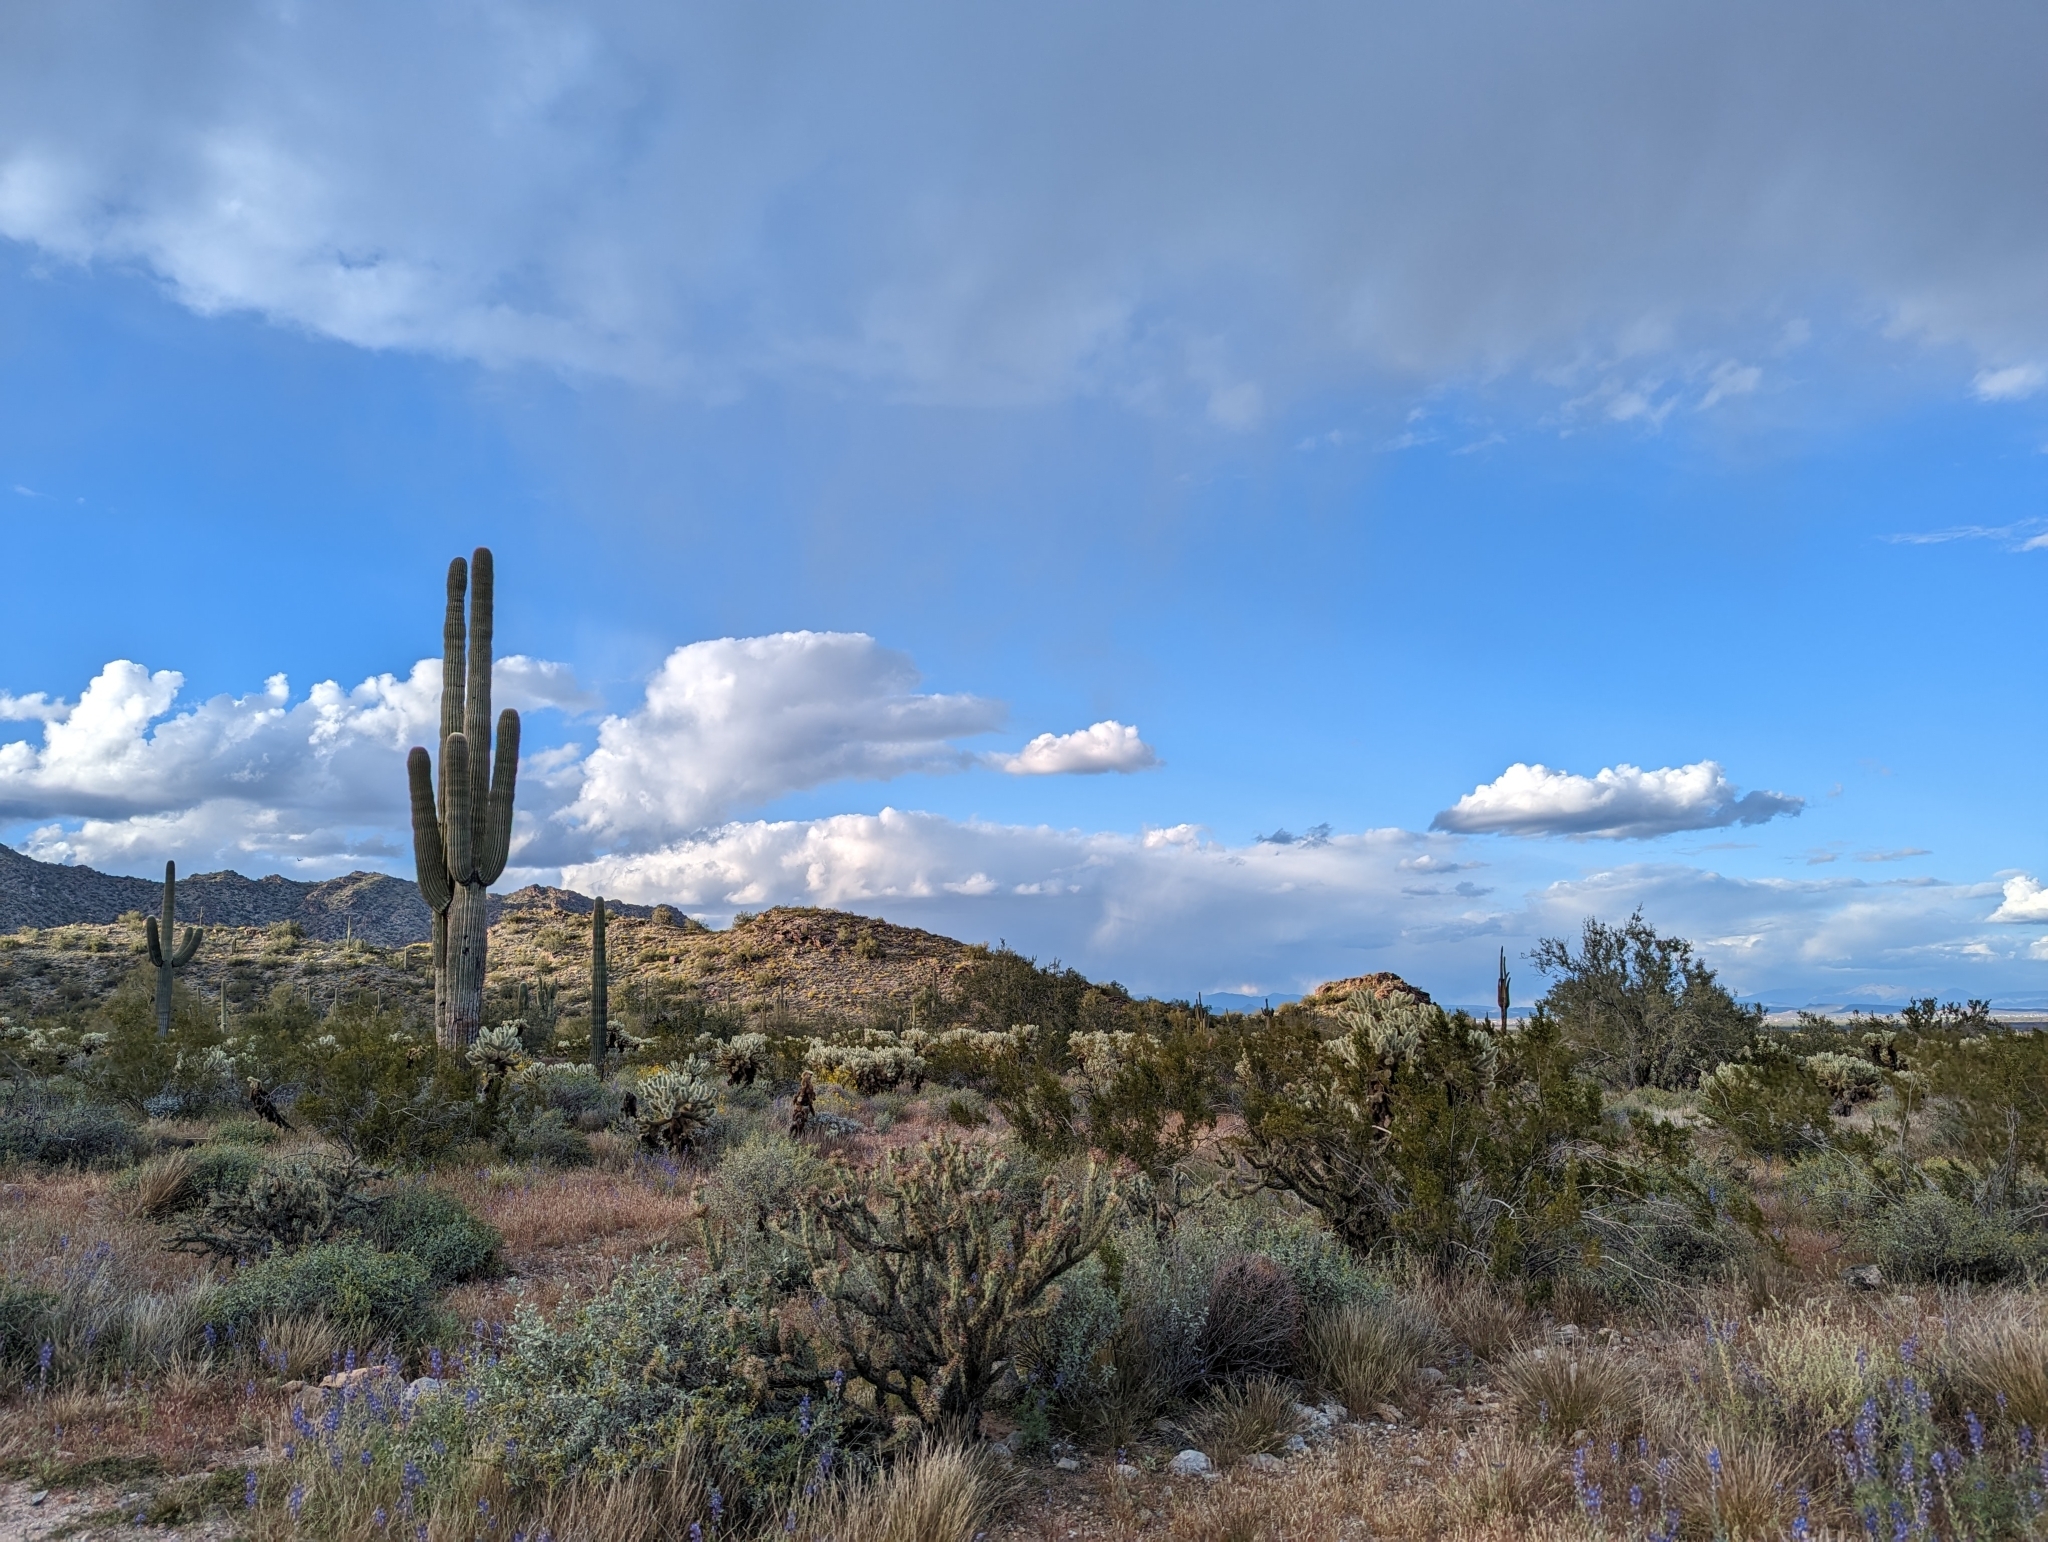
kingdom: Plantae
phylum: Tracheophyta
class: Magnoliopsida
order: Caryophyllales
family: Cactaceae
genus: Carnegiea
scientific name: Carnegiea gigantea
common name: Saguaro
